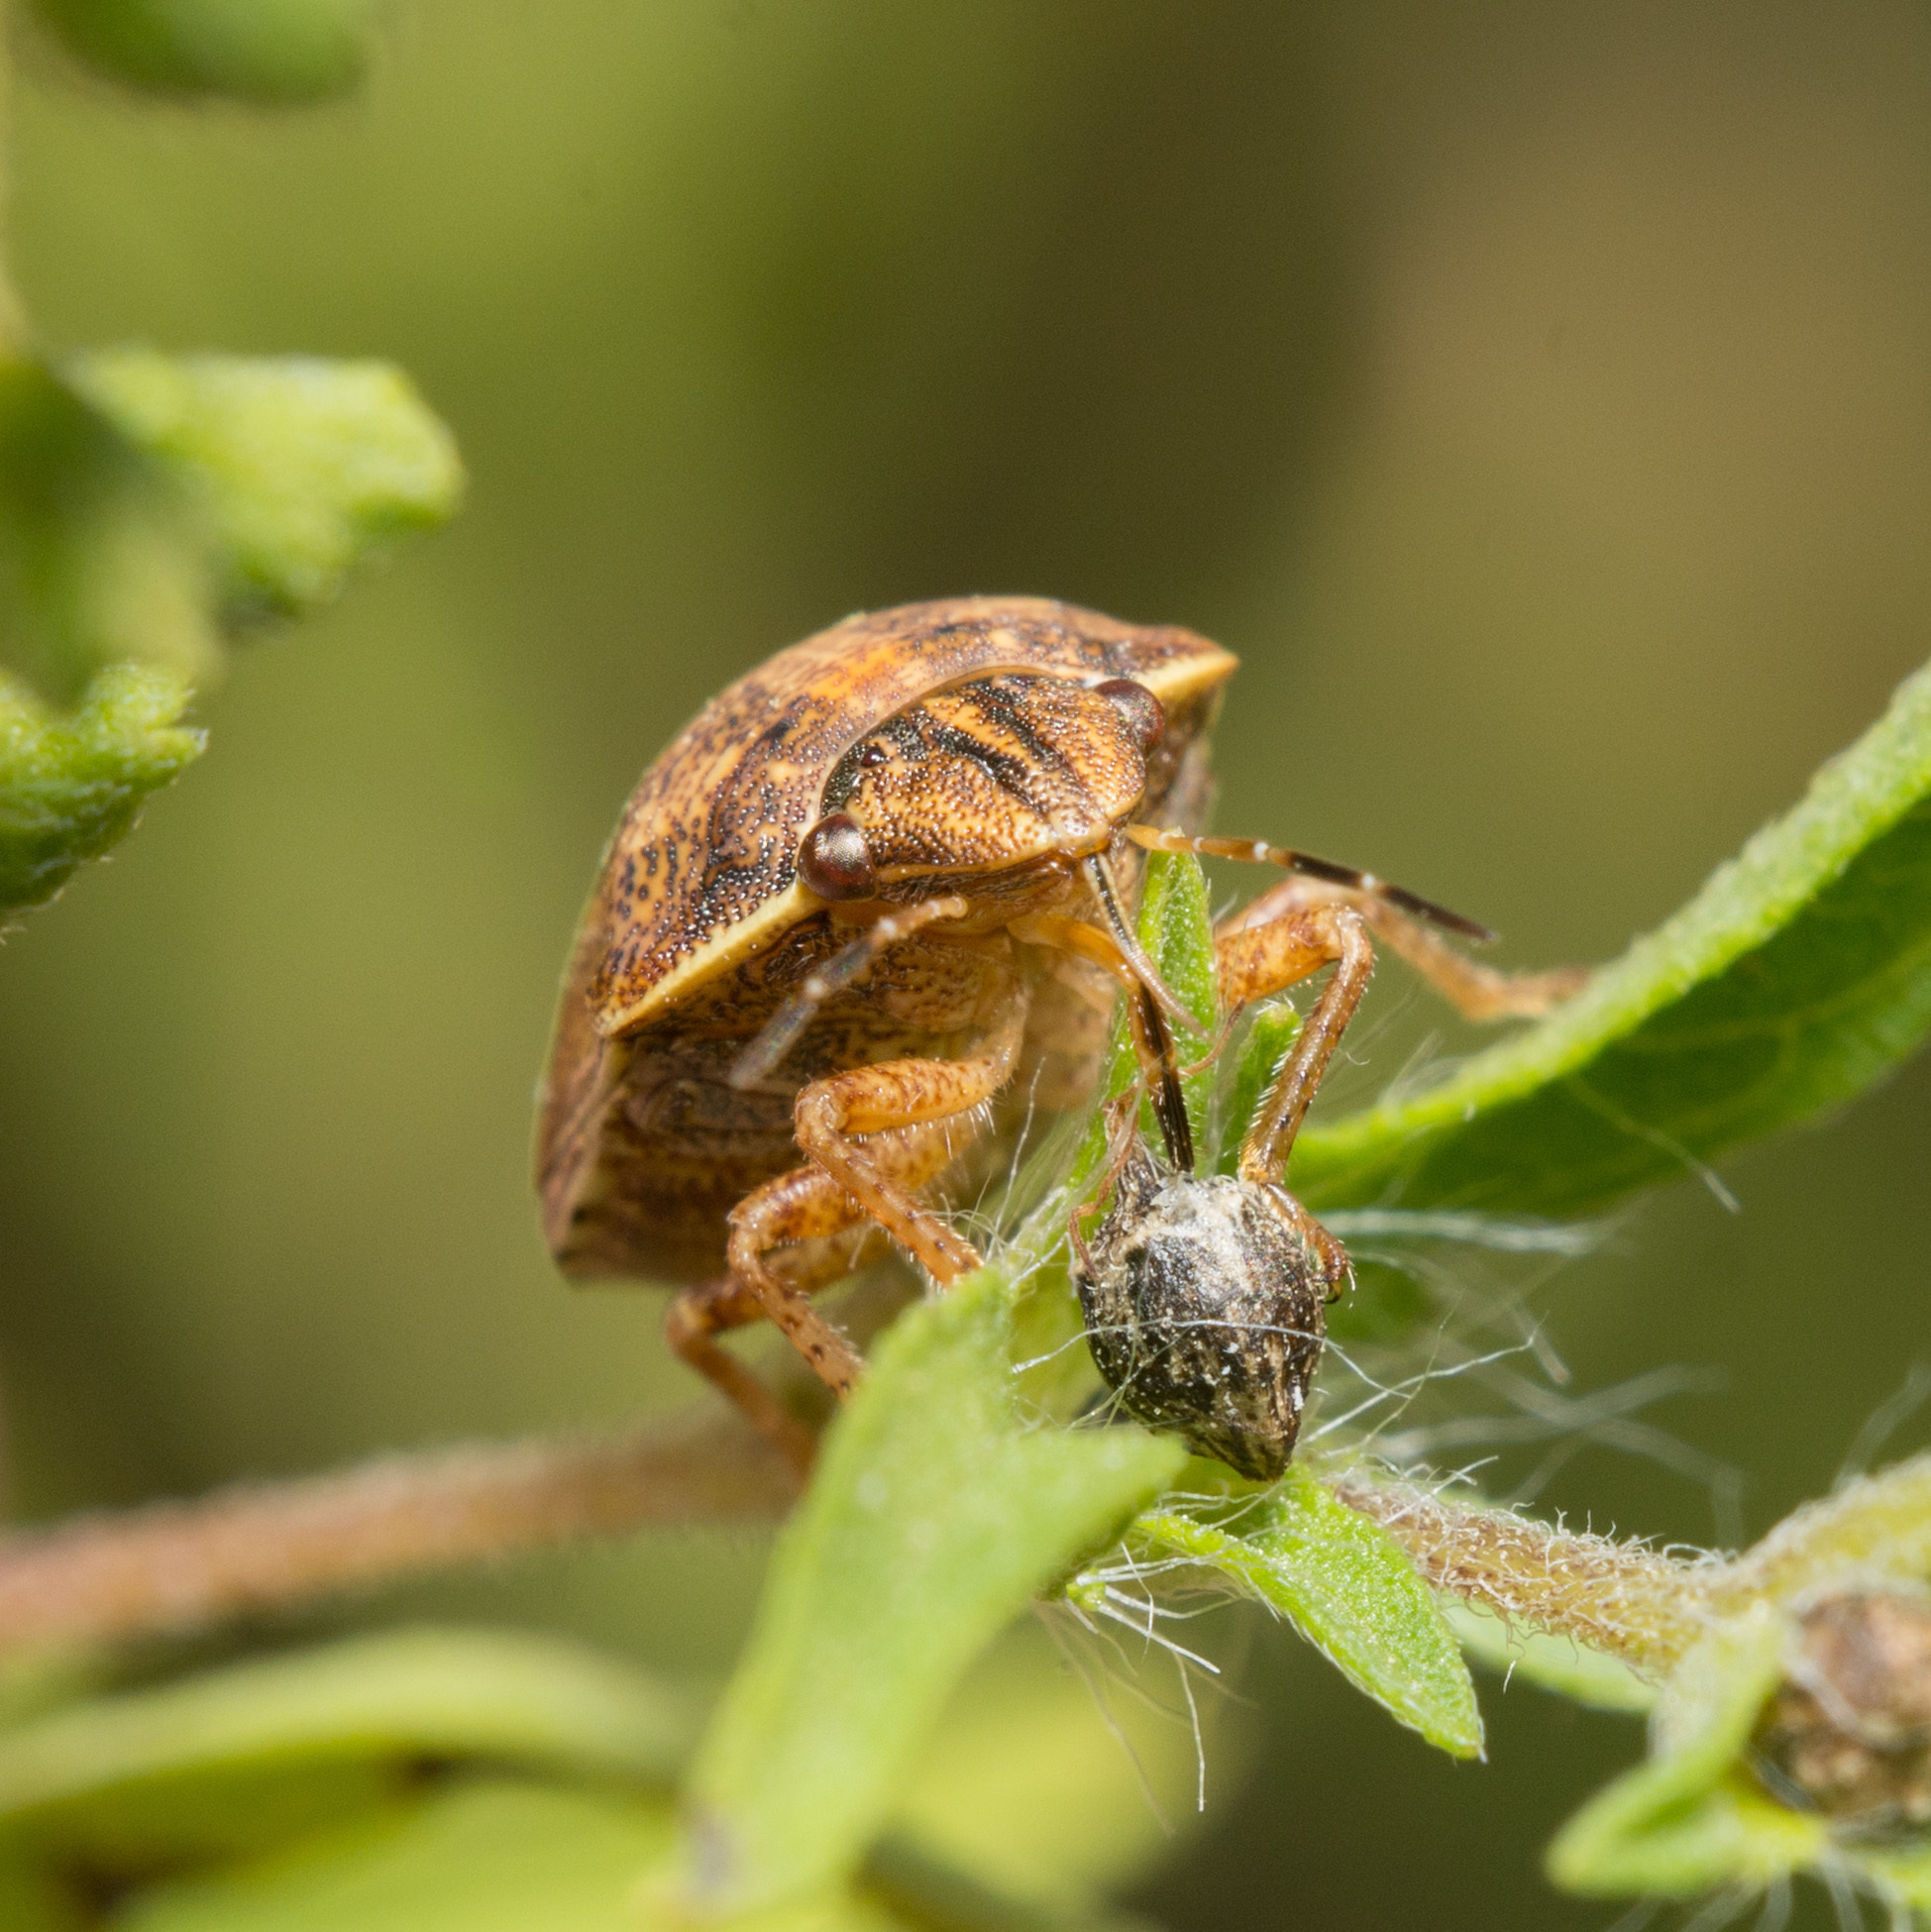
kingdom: Animalia
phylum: Arthropoda
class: Insecta
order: Hemiptera
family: Scutelleridae
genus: Sphyrocoris
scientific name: Sphyrocoris obliquus
